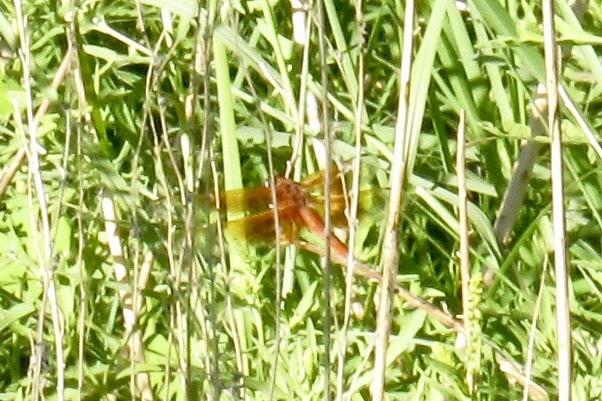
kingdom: Animalia
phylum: Arthropoda
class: Insecta
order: Odonata
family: Libellulidae
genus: Libellula
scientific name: Libellula saturata
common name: Flame skimmer
